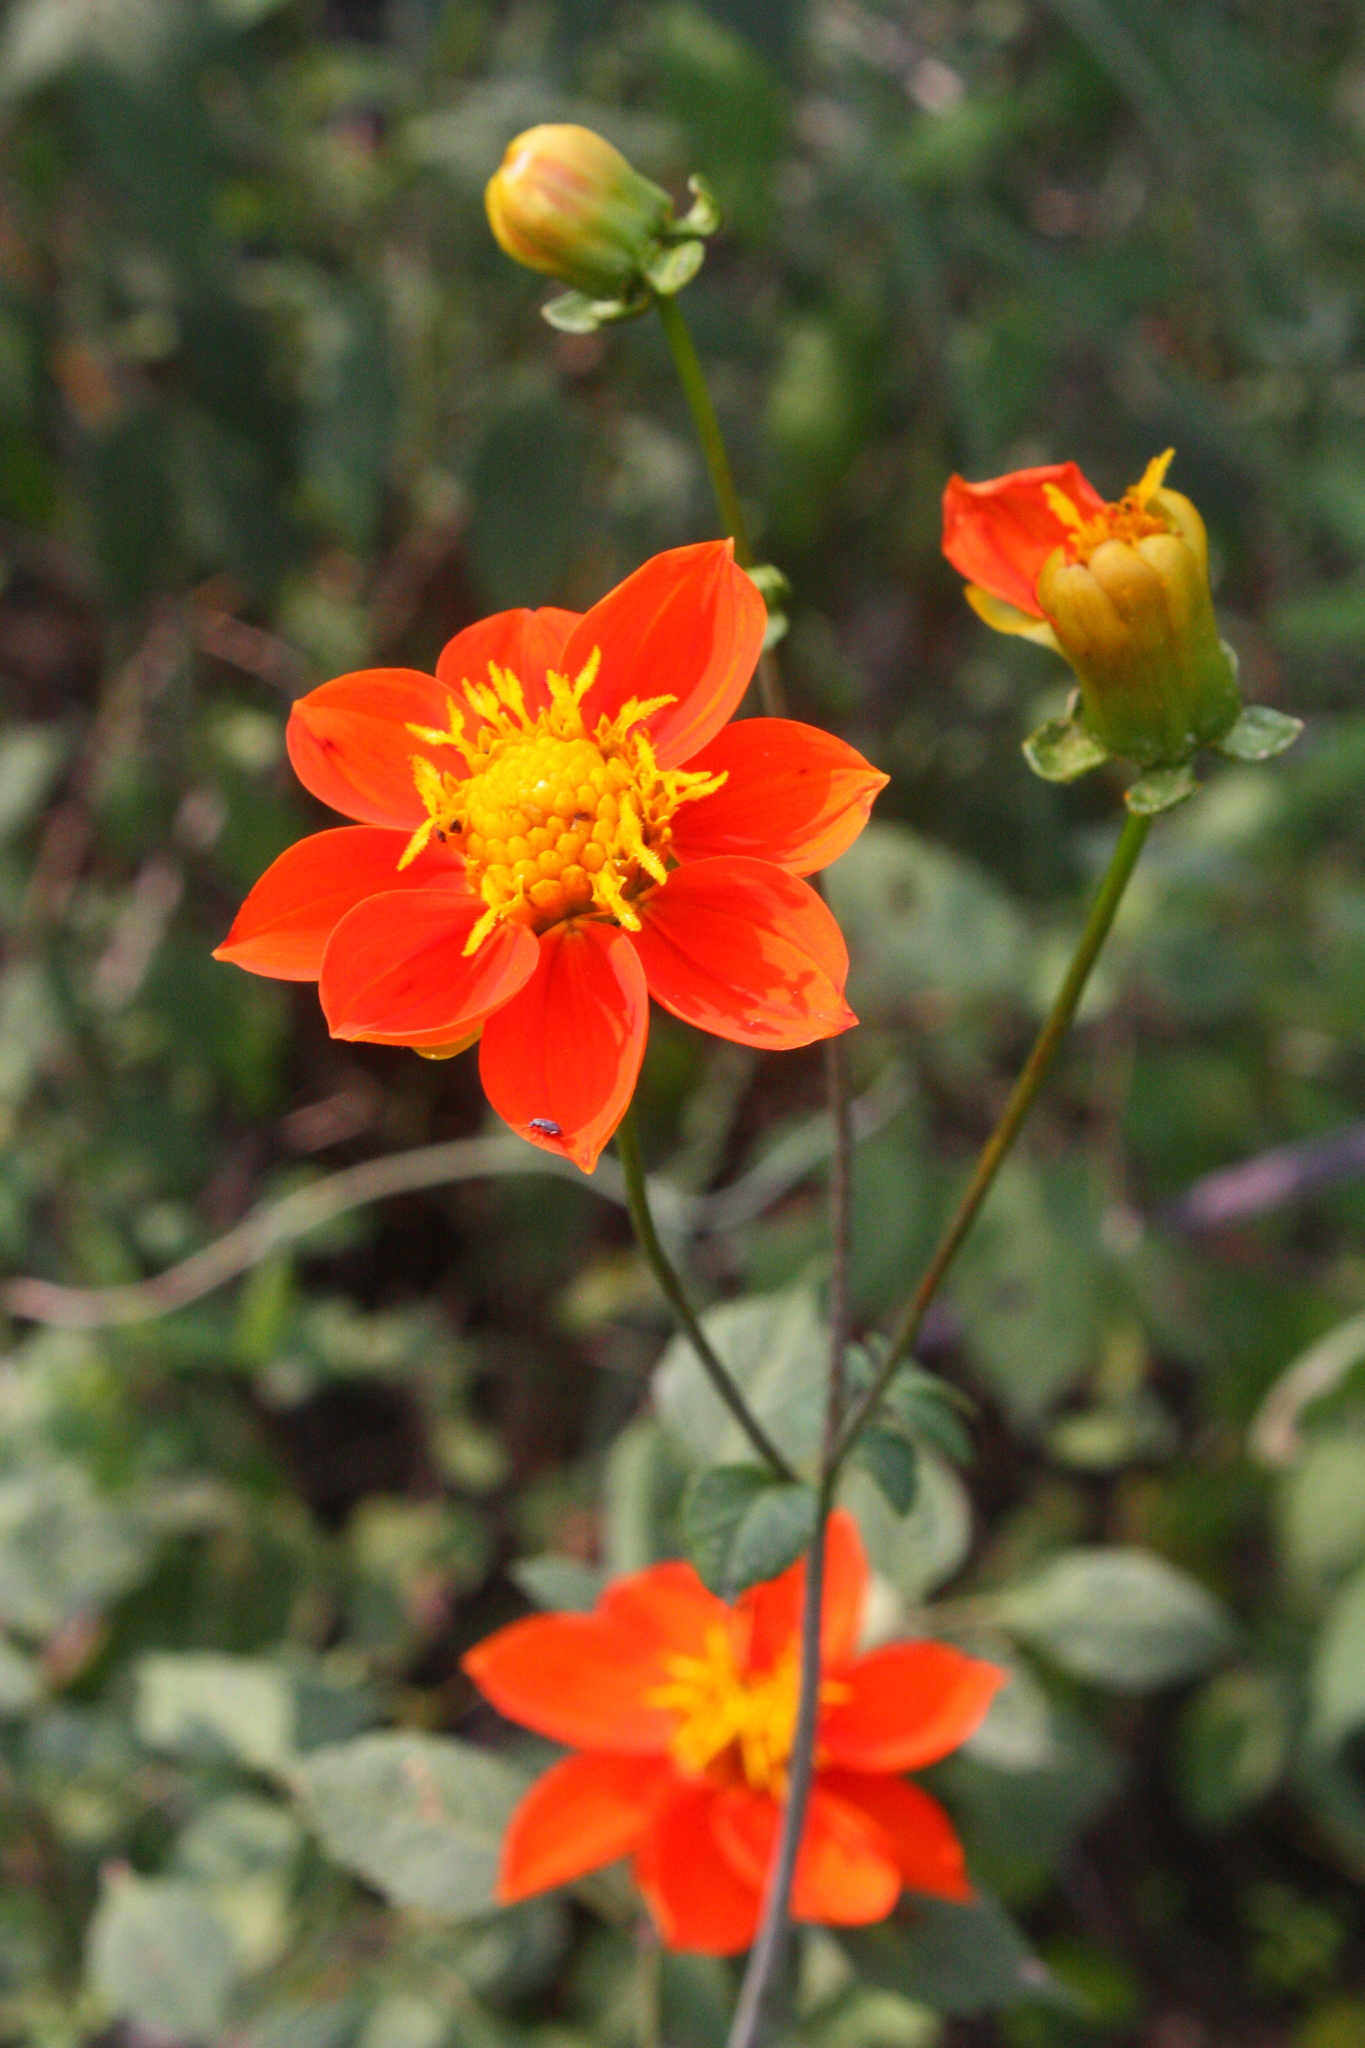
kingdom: Plantae
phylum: Tracheophyta
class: Magnoliopsida
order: Asterales
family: Asteraceae
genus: Dahlia
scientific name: Dahlia coccinea
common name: Red dahlia
